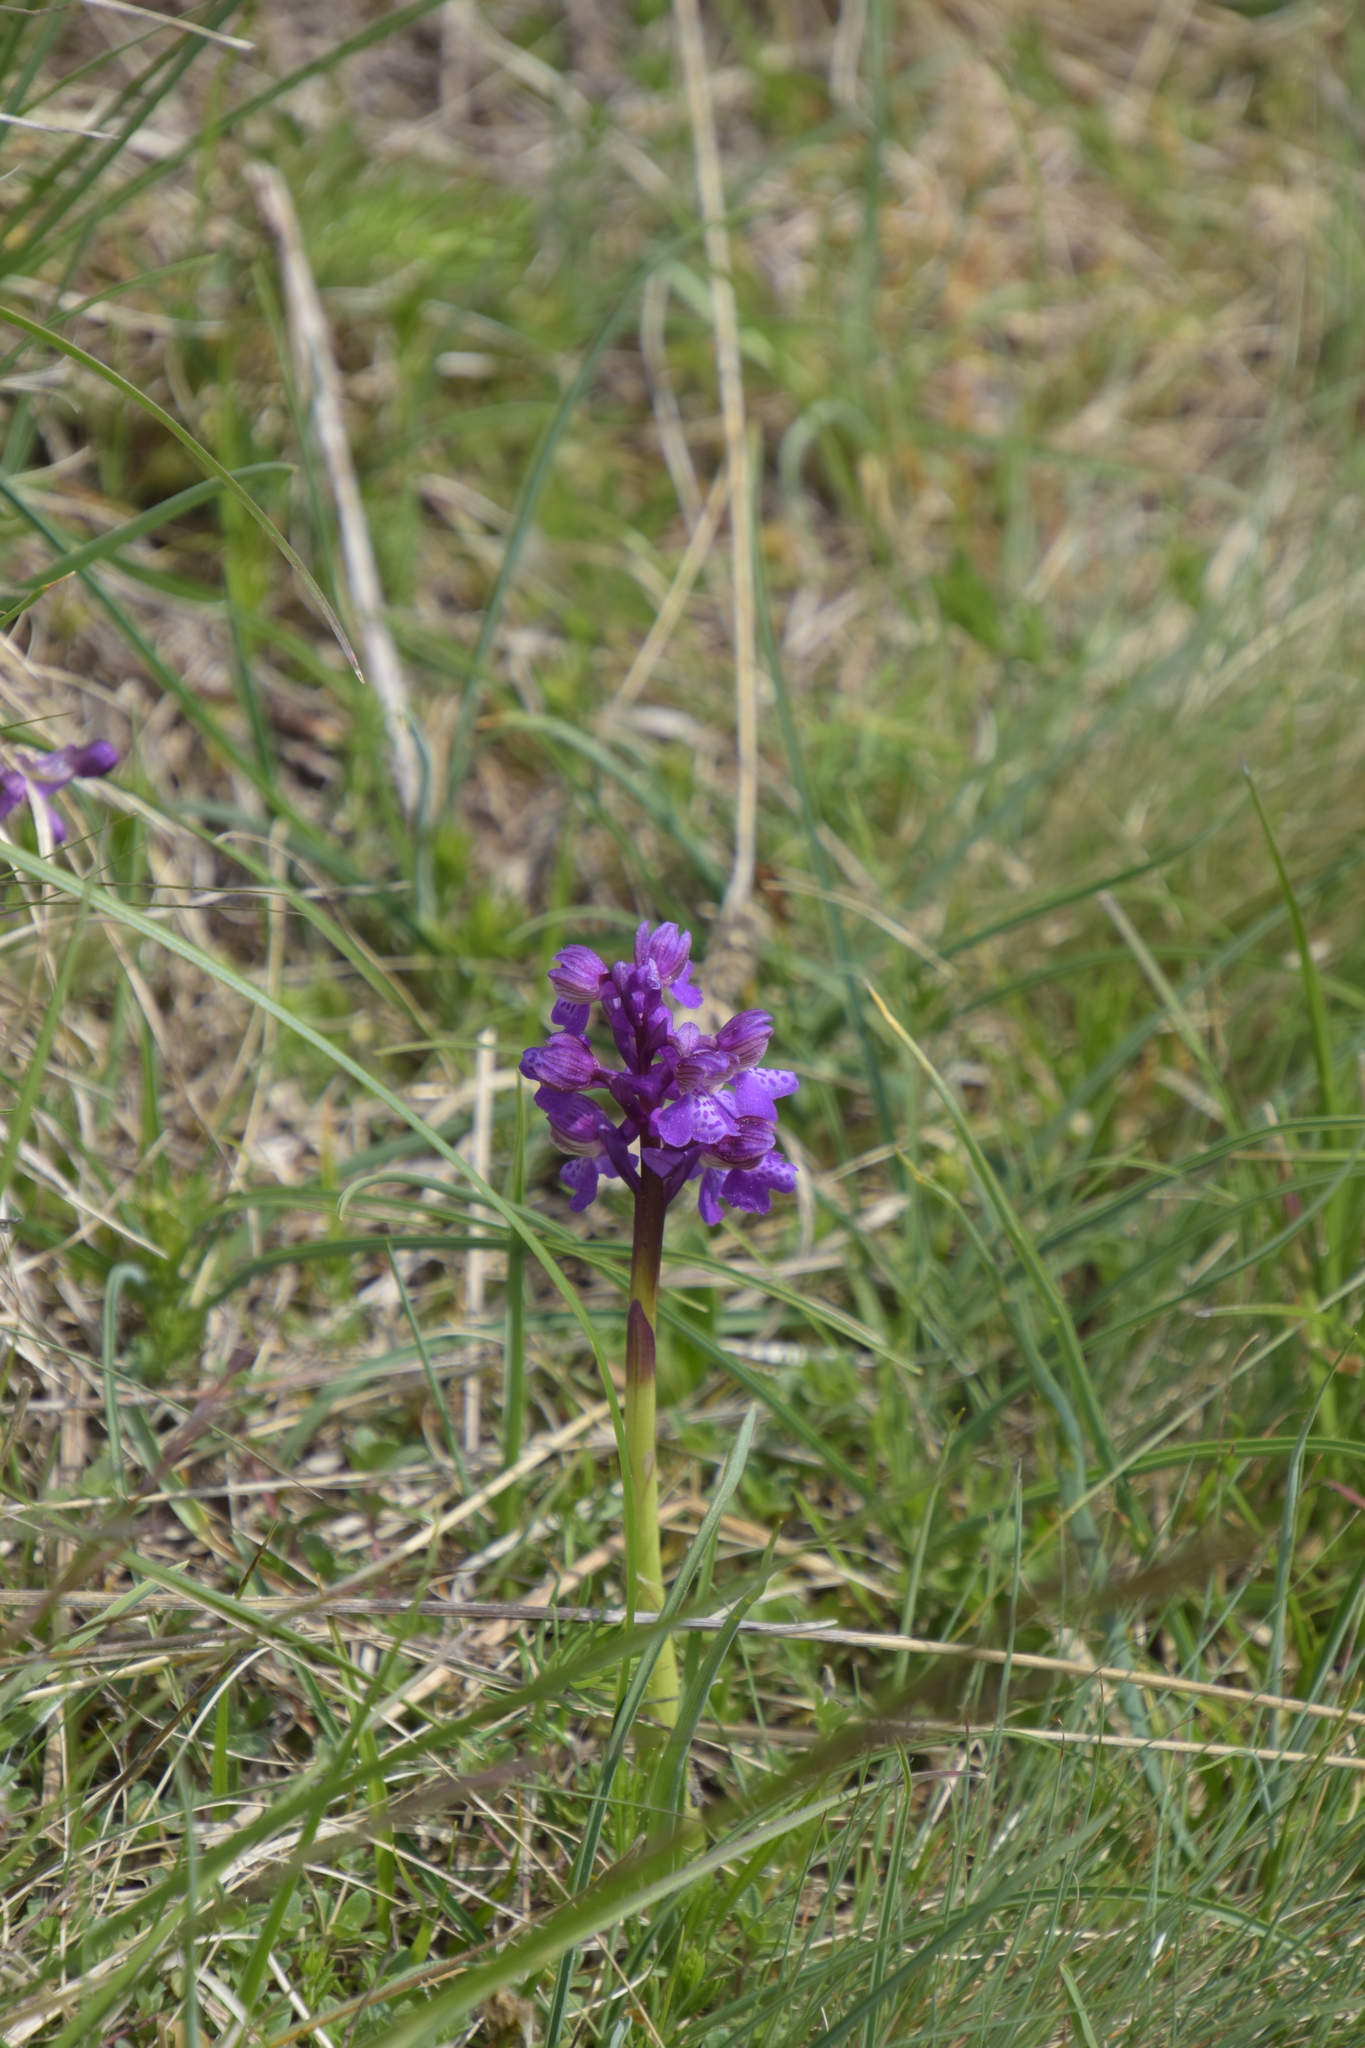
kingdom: Plantae
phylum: Tracheophyta
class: Liliopsida
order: Asparagales
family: Orchidaceae
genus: Anacamptis
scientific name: Anacamptis morio
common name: Green-winged orchid
